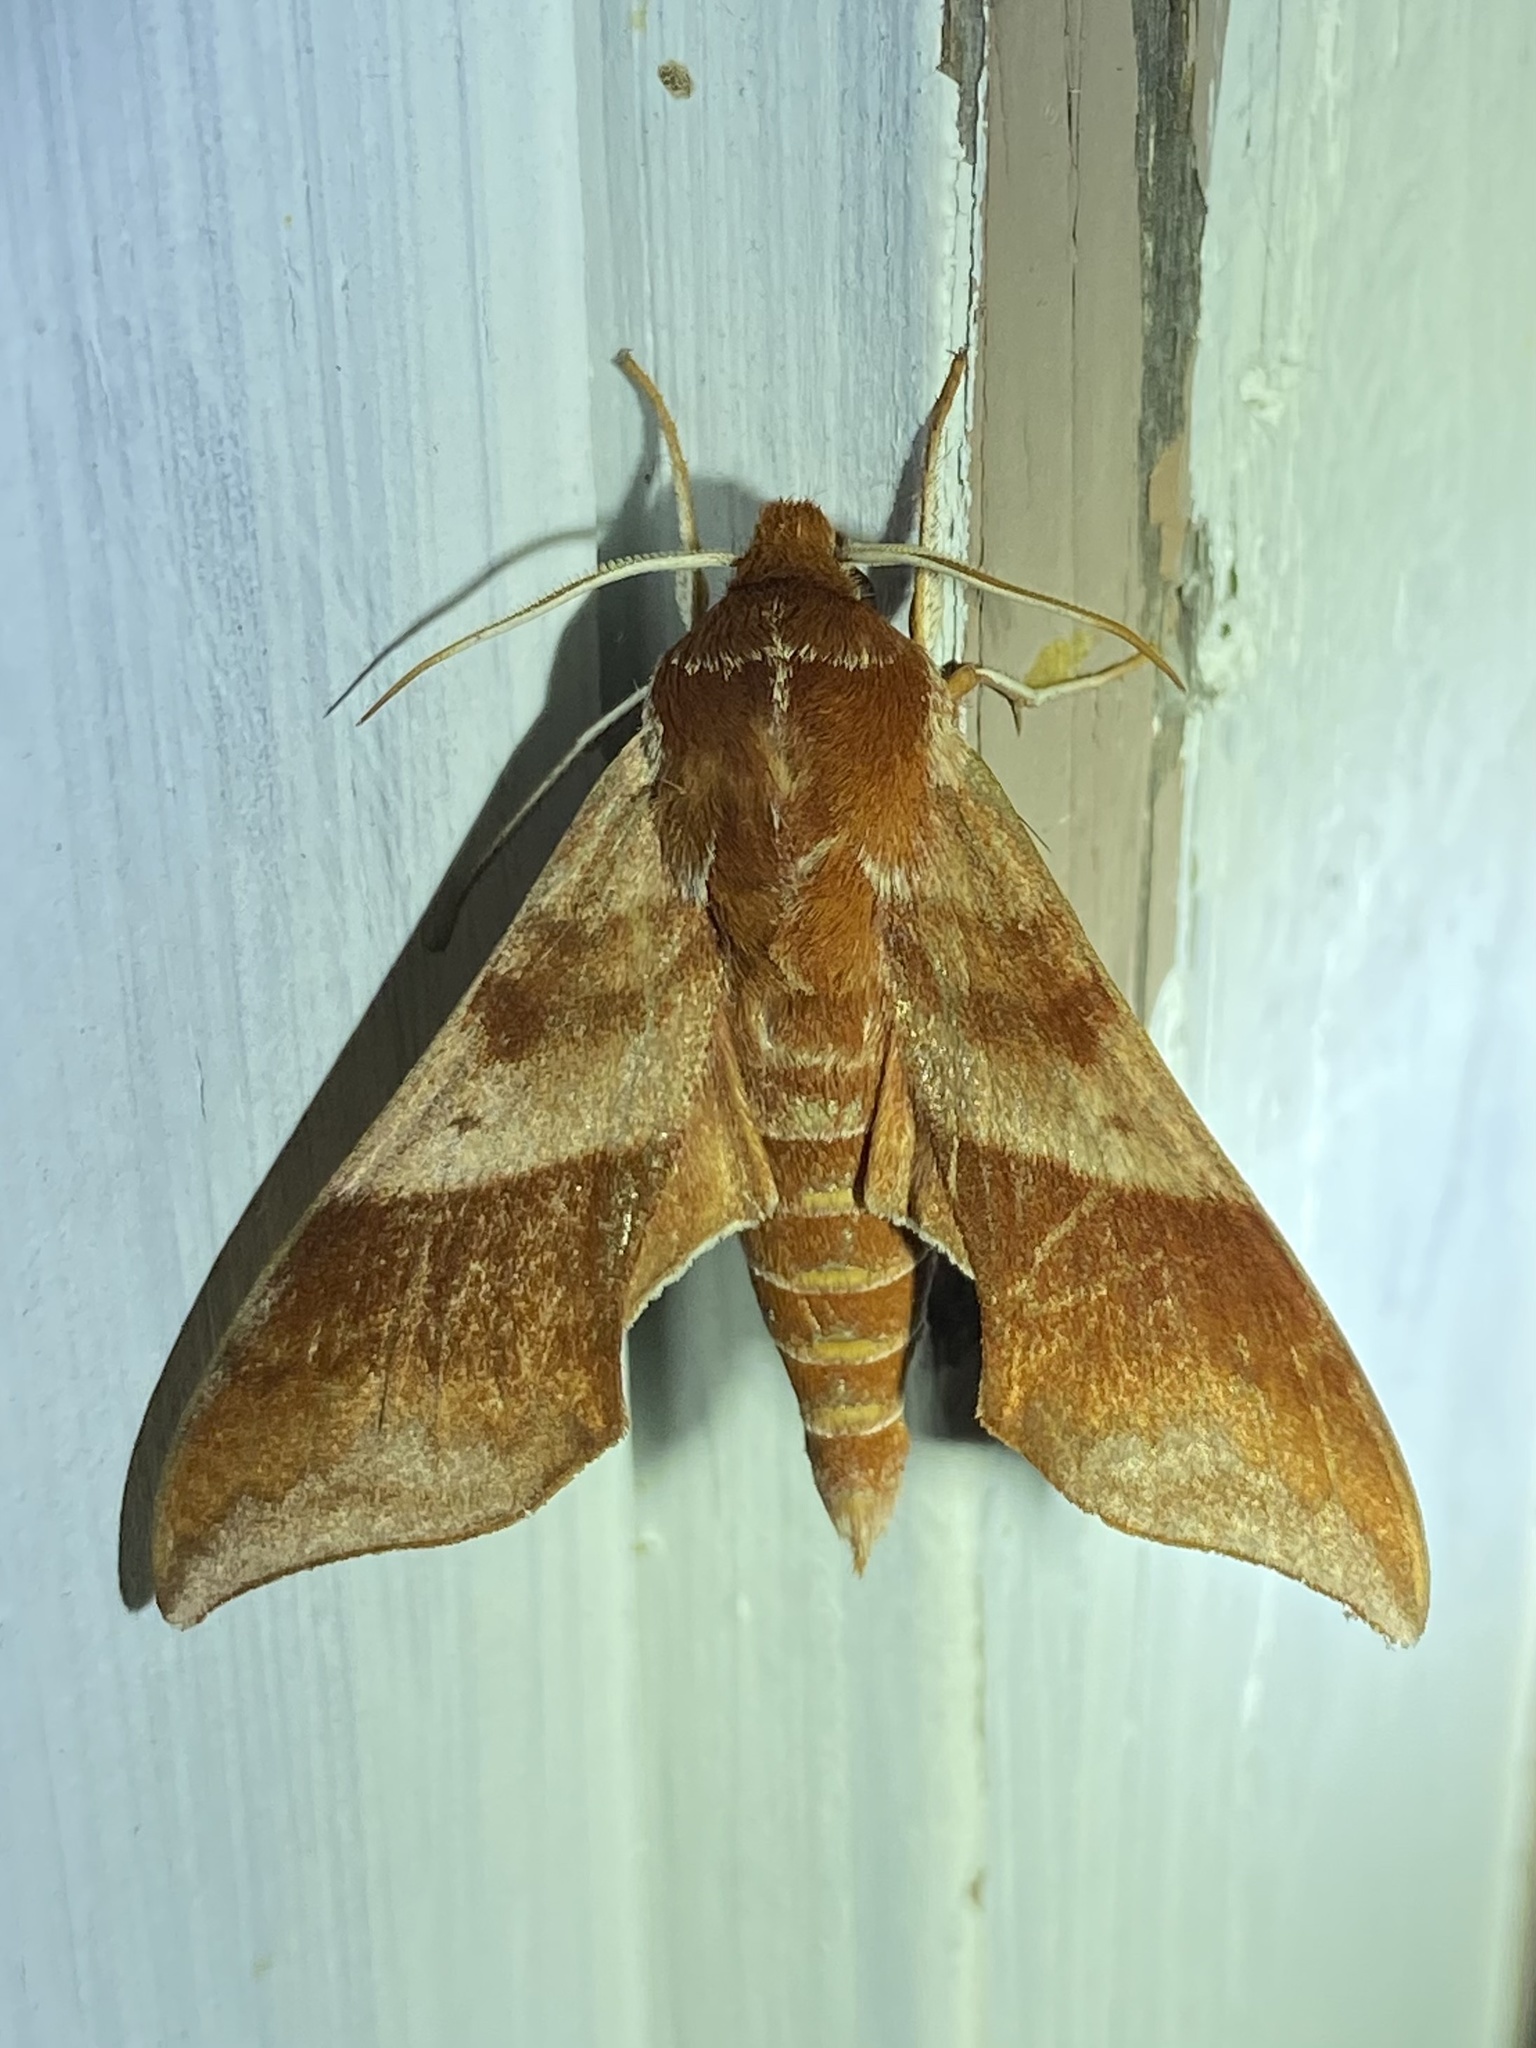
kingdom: Animalia
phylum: Arthropoda
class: Insecta
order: Lepidoptera
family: Sphingidae
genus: Darapsa
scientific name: Darapsa choerilus
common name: Azalea sphinx
